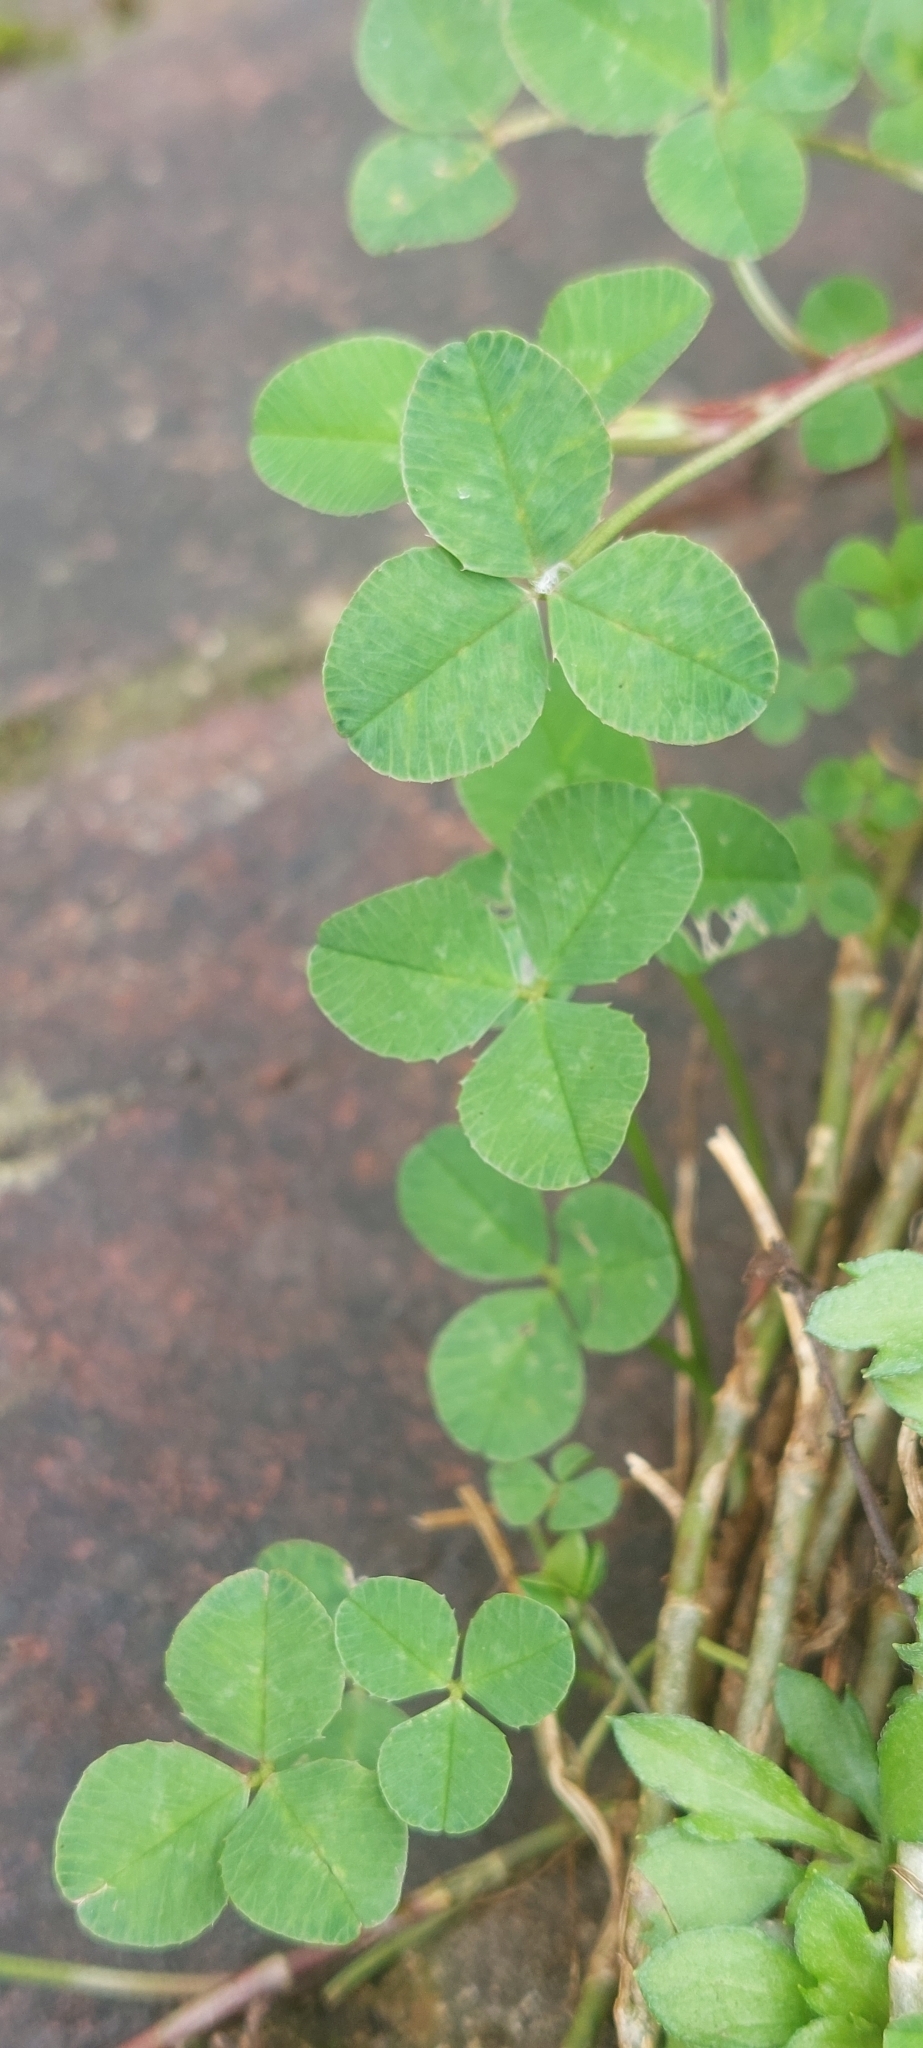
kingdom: Plantae
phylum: Tracheophyta
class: Magnoliopsida
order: Fabales
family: Fabaceae
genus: Trifolium
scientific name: Trifolium repens
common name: White clover
